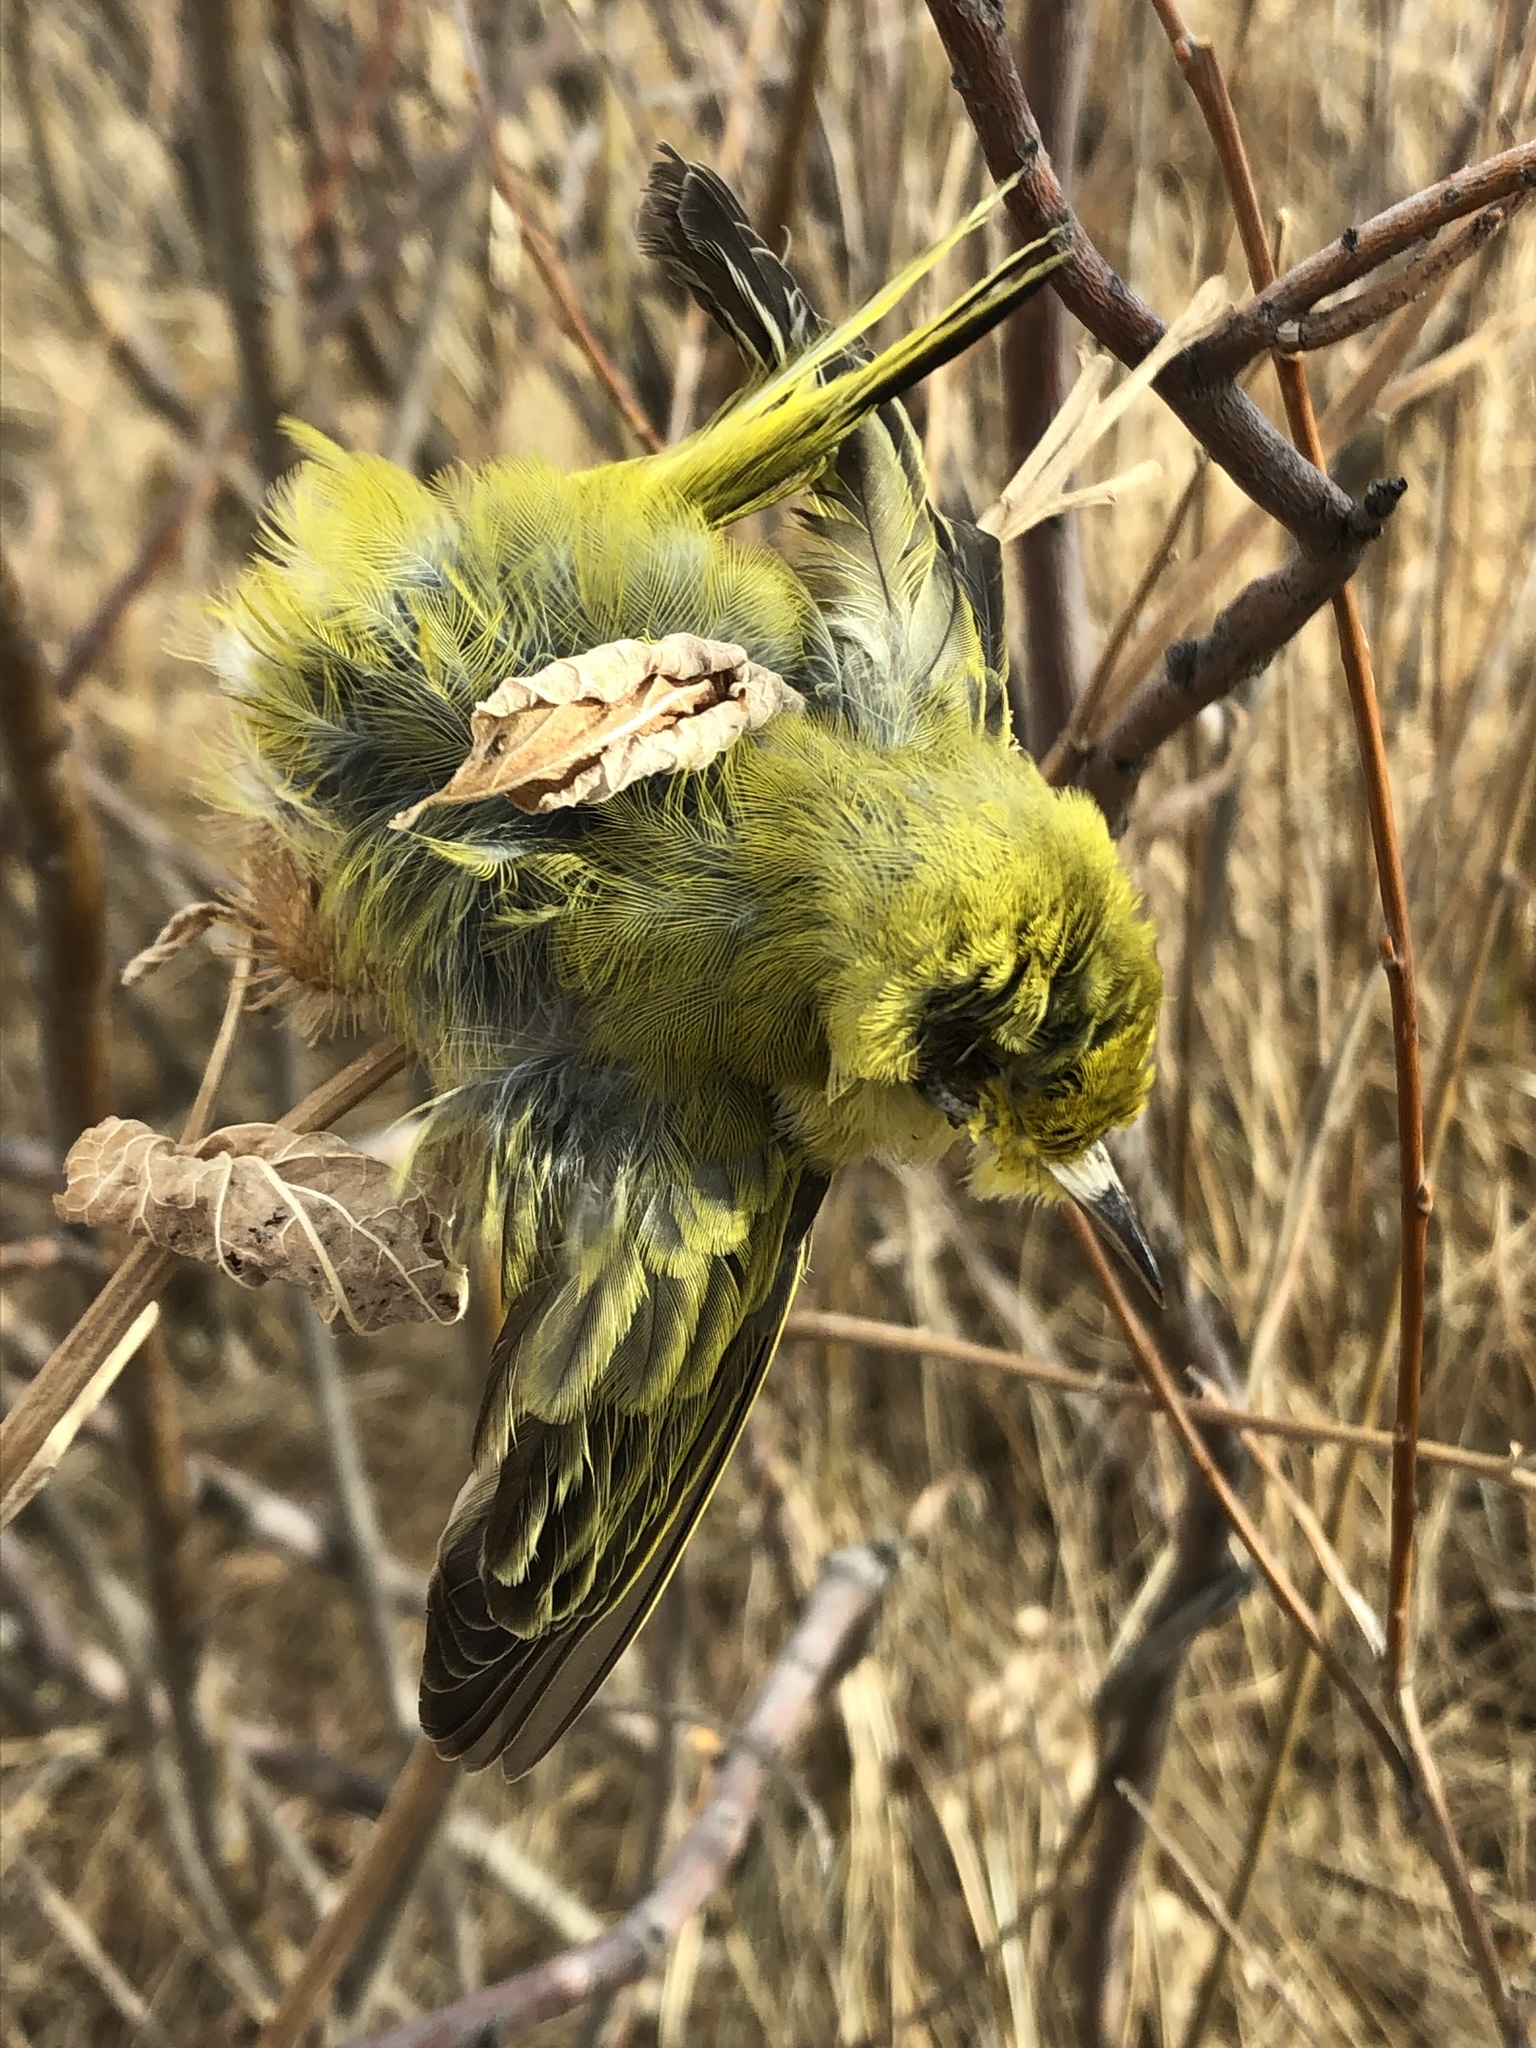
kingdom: Animalia
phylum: Chordata
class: Aves
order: Passeriformes
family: Parulidae
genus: Setophaga
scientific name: Setophaga petechia
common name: Yellow warbler
